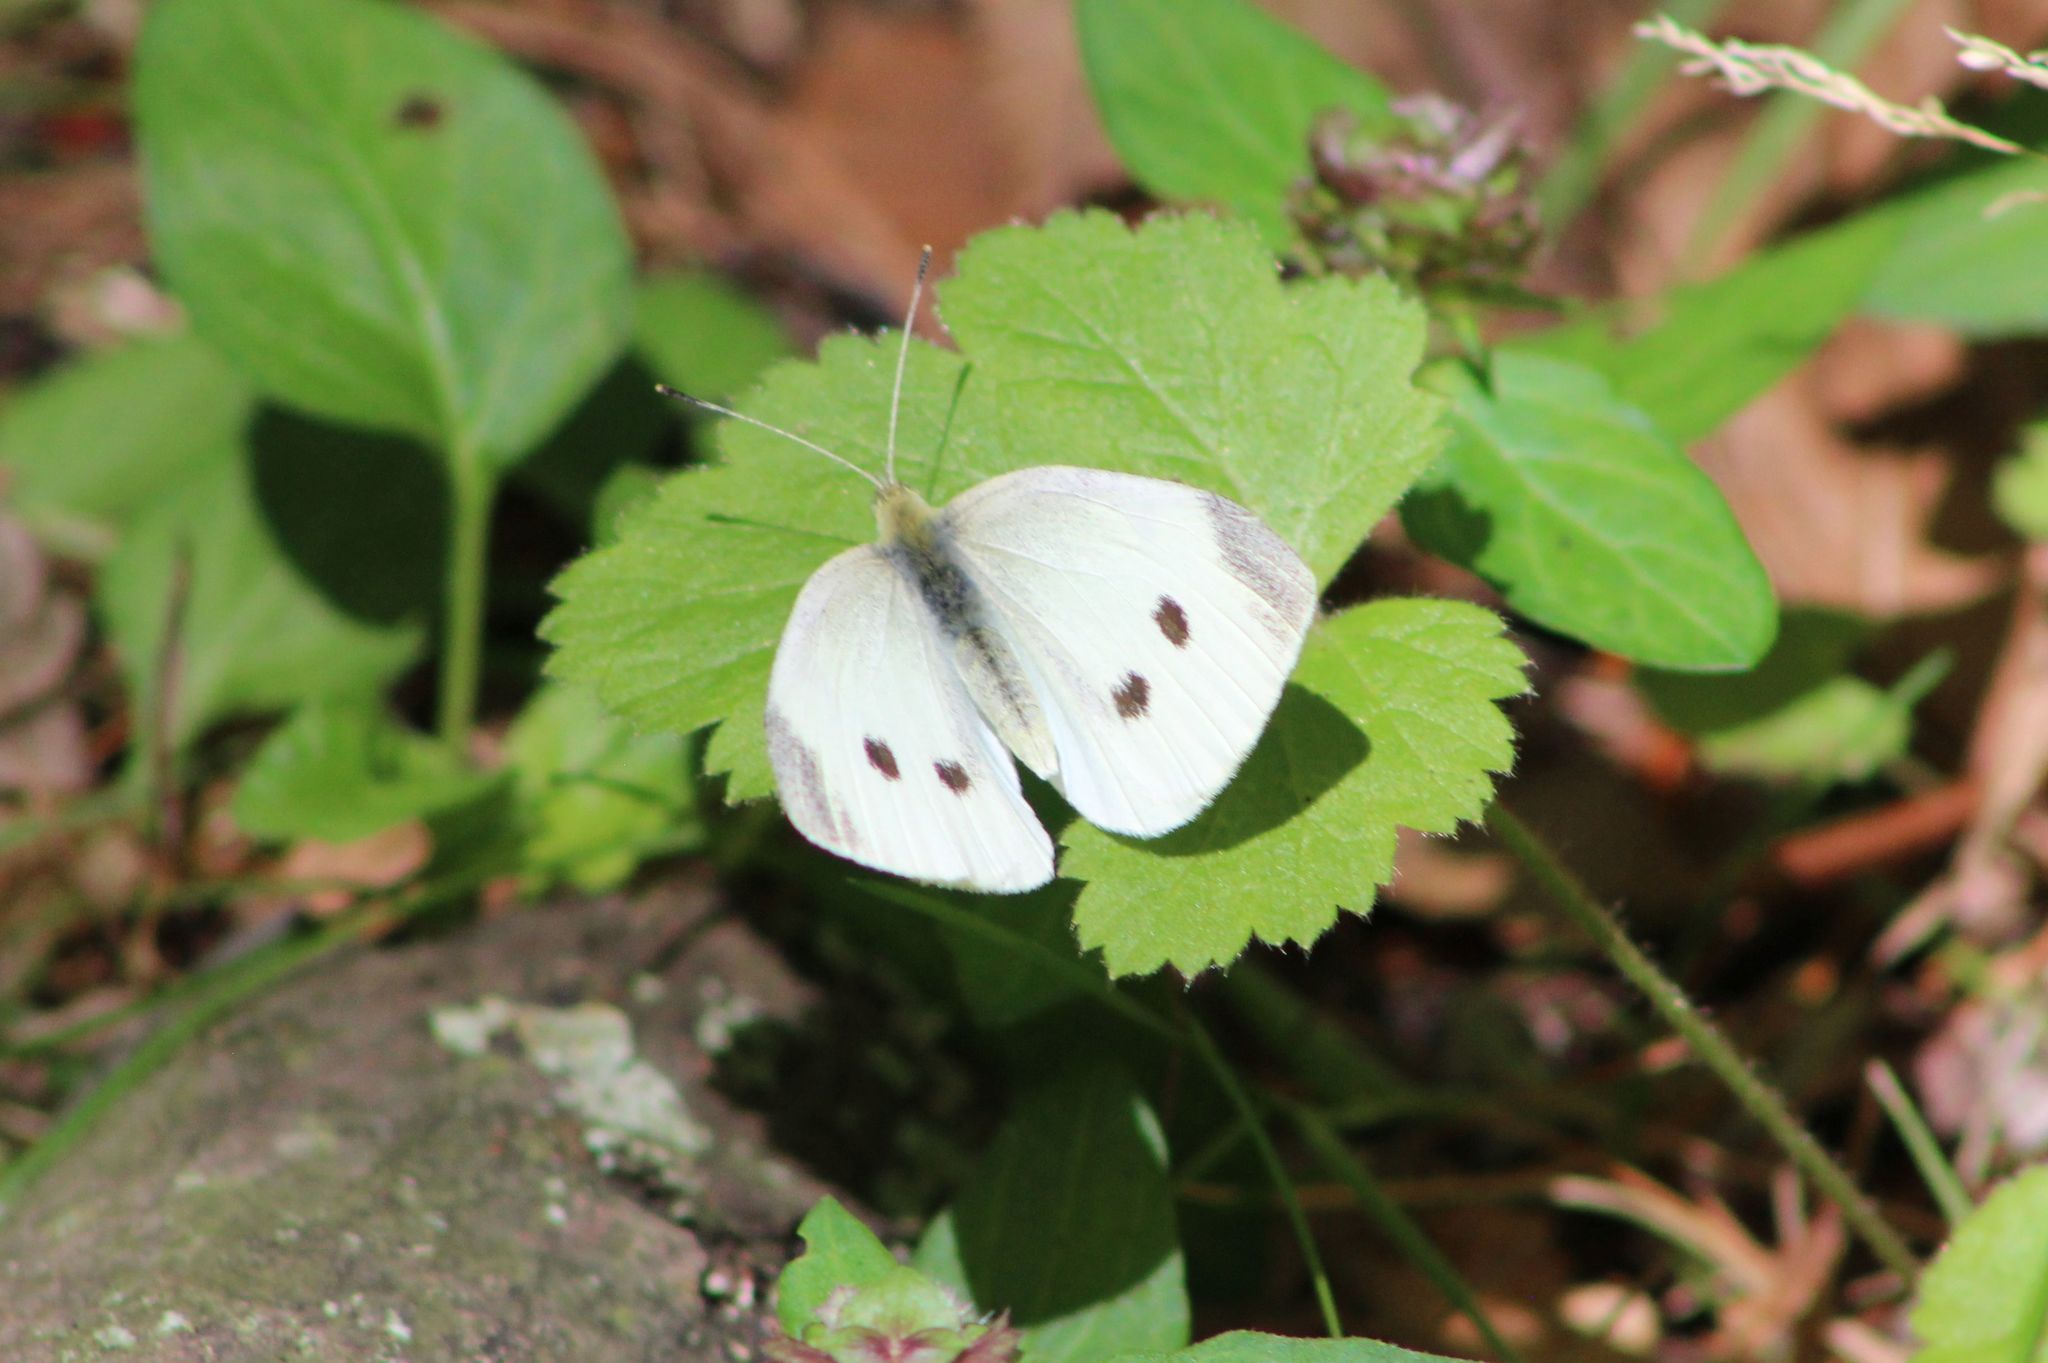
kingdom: Animalia
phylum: Arthropoda
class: Insecta
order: Lepidoptera
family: Pieridae
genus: Pieris
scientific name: Pieris rapae
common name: Small white
